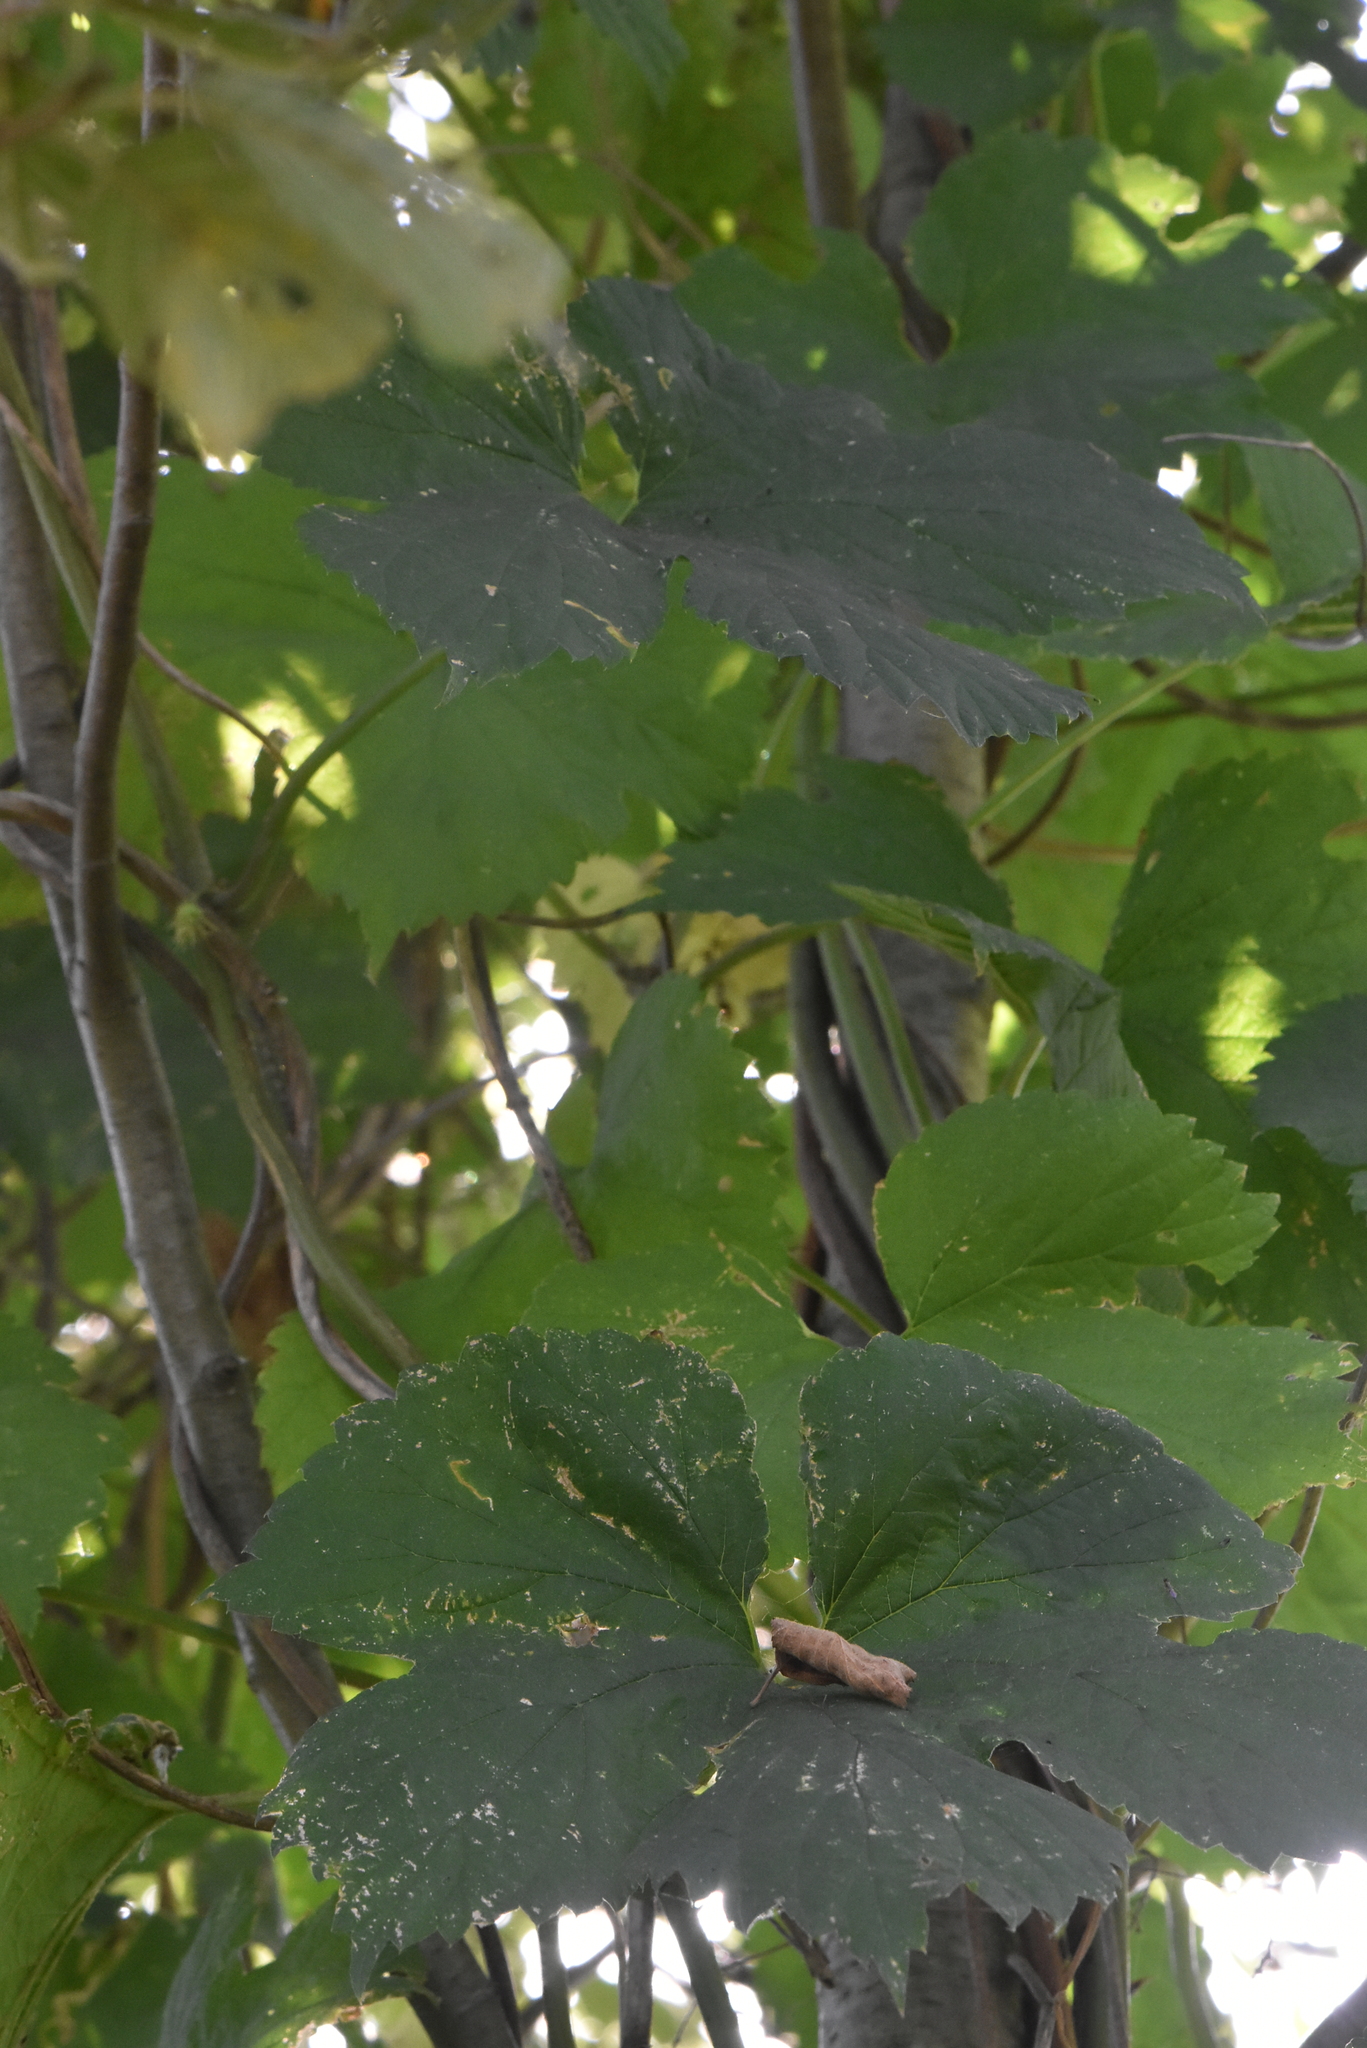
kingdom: Plantae
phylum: Tracheophyta
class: Magnoliopsida
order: Rosales
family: Cannabaceae
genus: Humulus
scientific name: Humulus lupulus
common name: Hop
